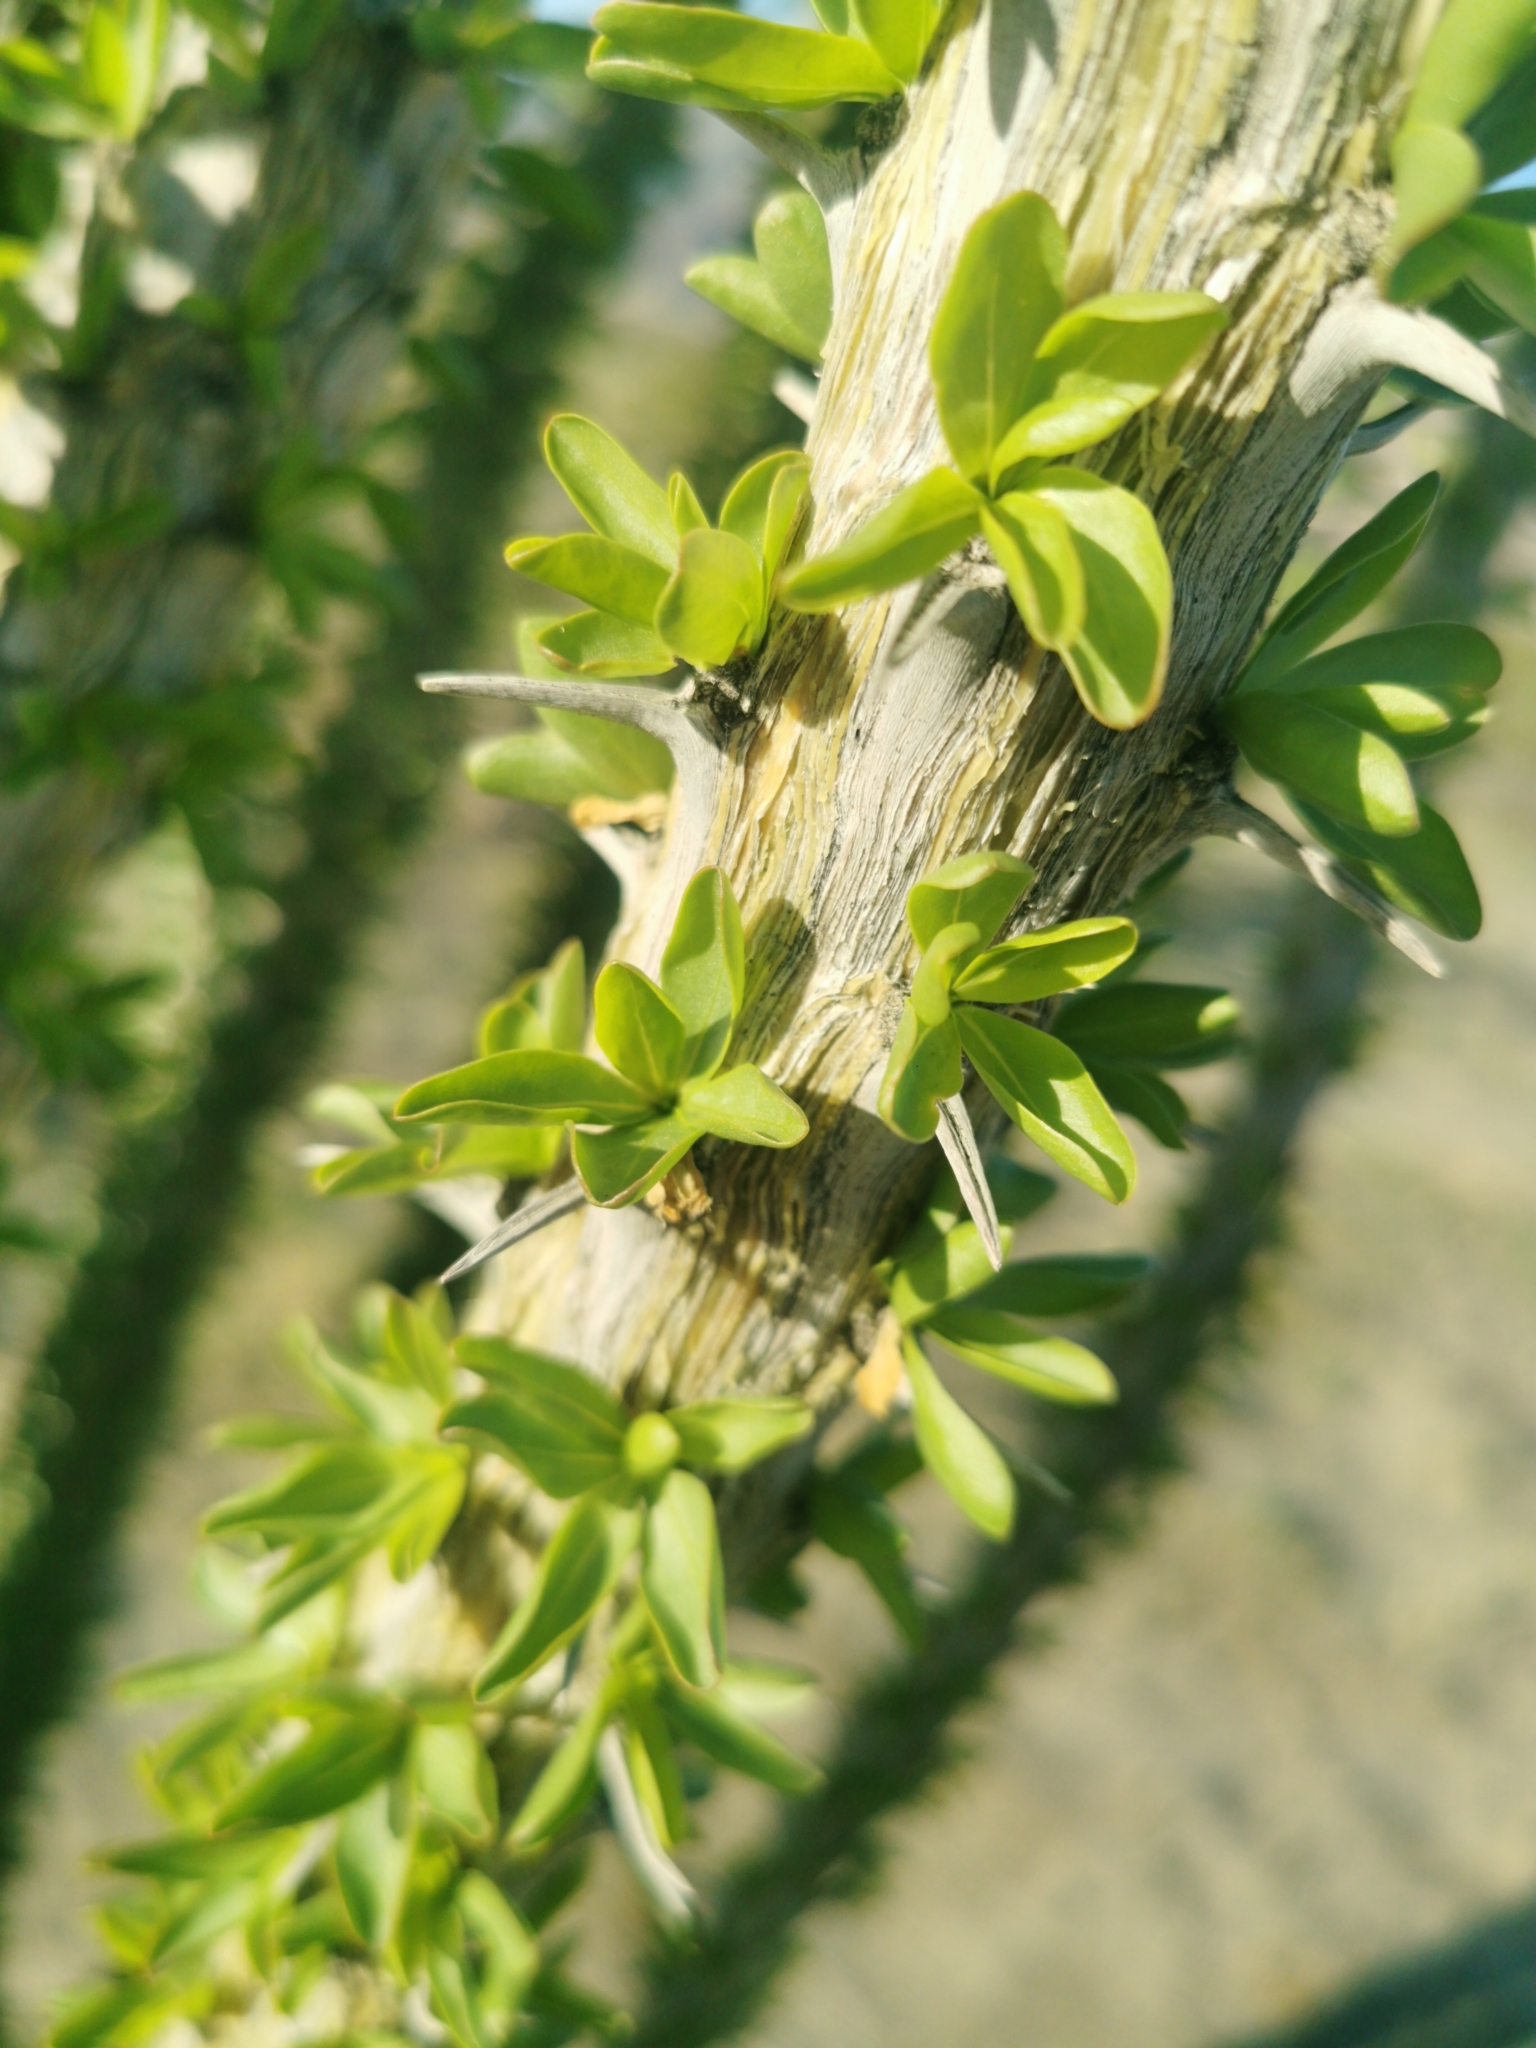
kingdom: Plantae
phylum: Tracheophyta
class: Magnoliopsida
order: Ericales
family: Fouquieriaceae
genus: Fouquieria
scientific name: Fouquieria splendens
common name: Vine-cactus
